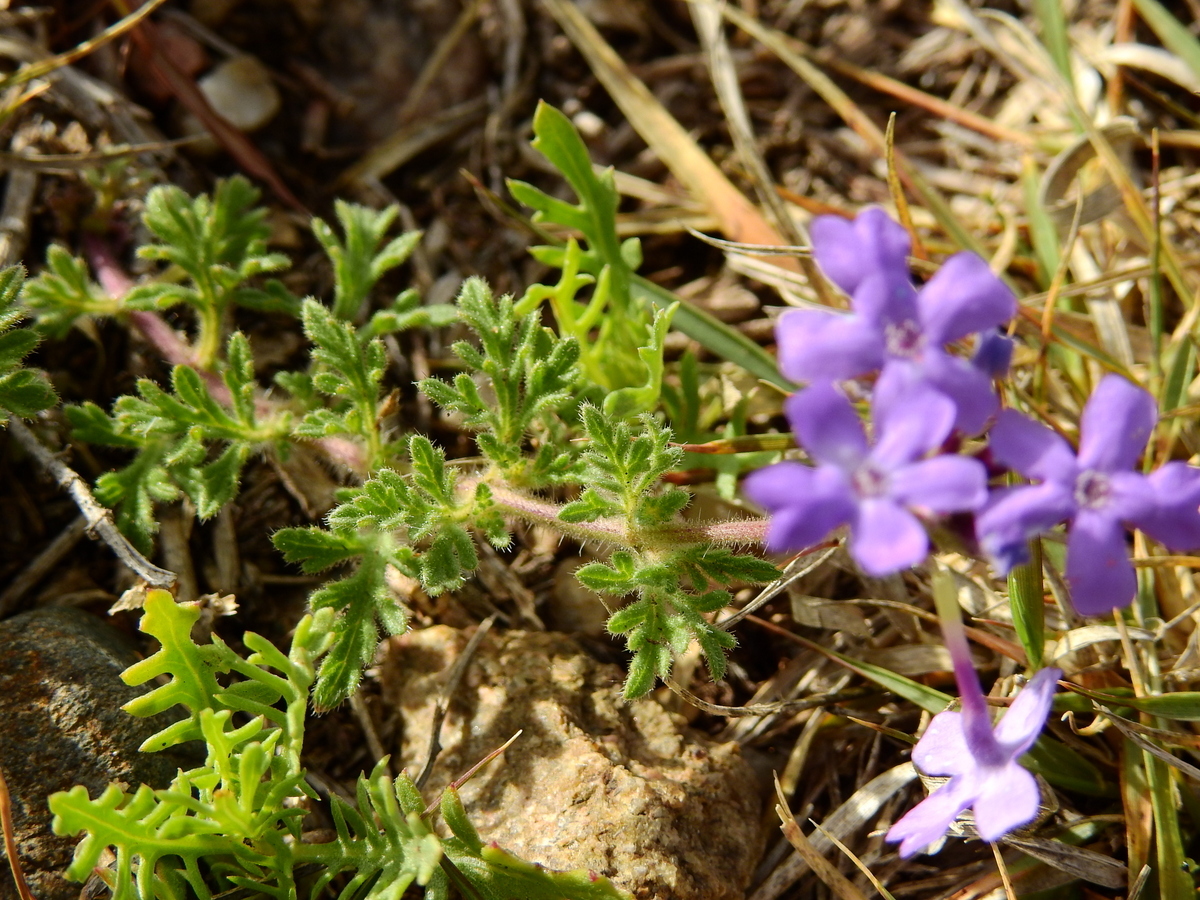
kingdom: Plantae
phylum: Tracheophyta
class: Magnoliopsida
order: Lamiales
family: Verbenaceae
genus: Verbena
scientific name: Verbena venturii
